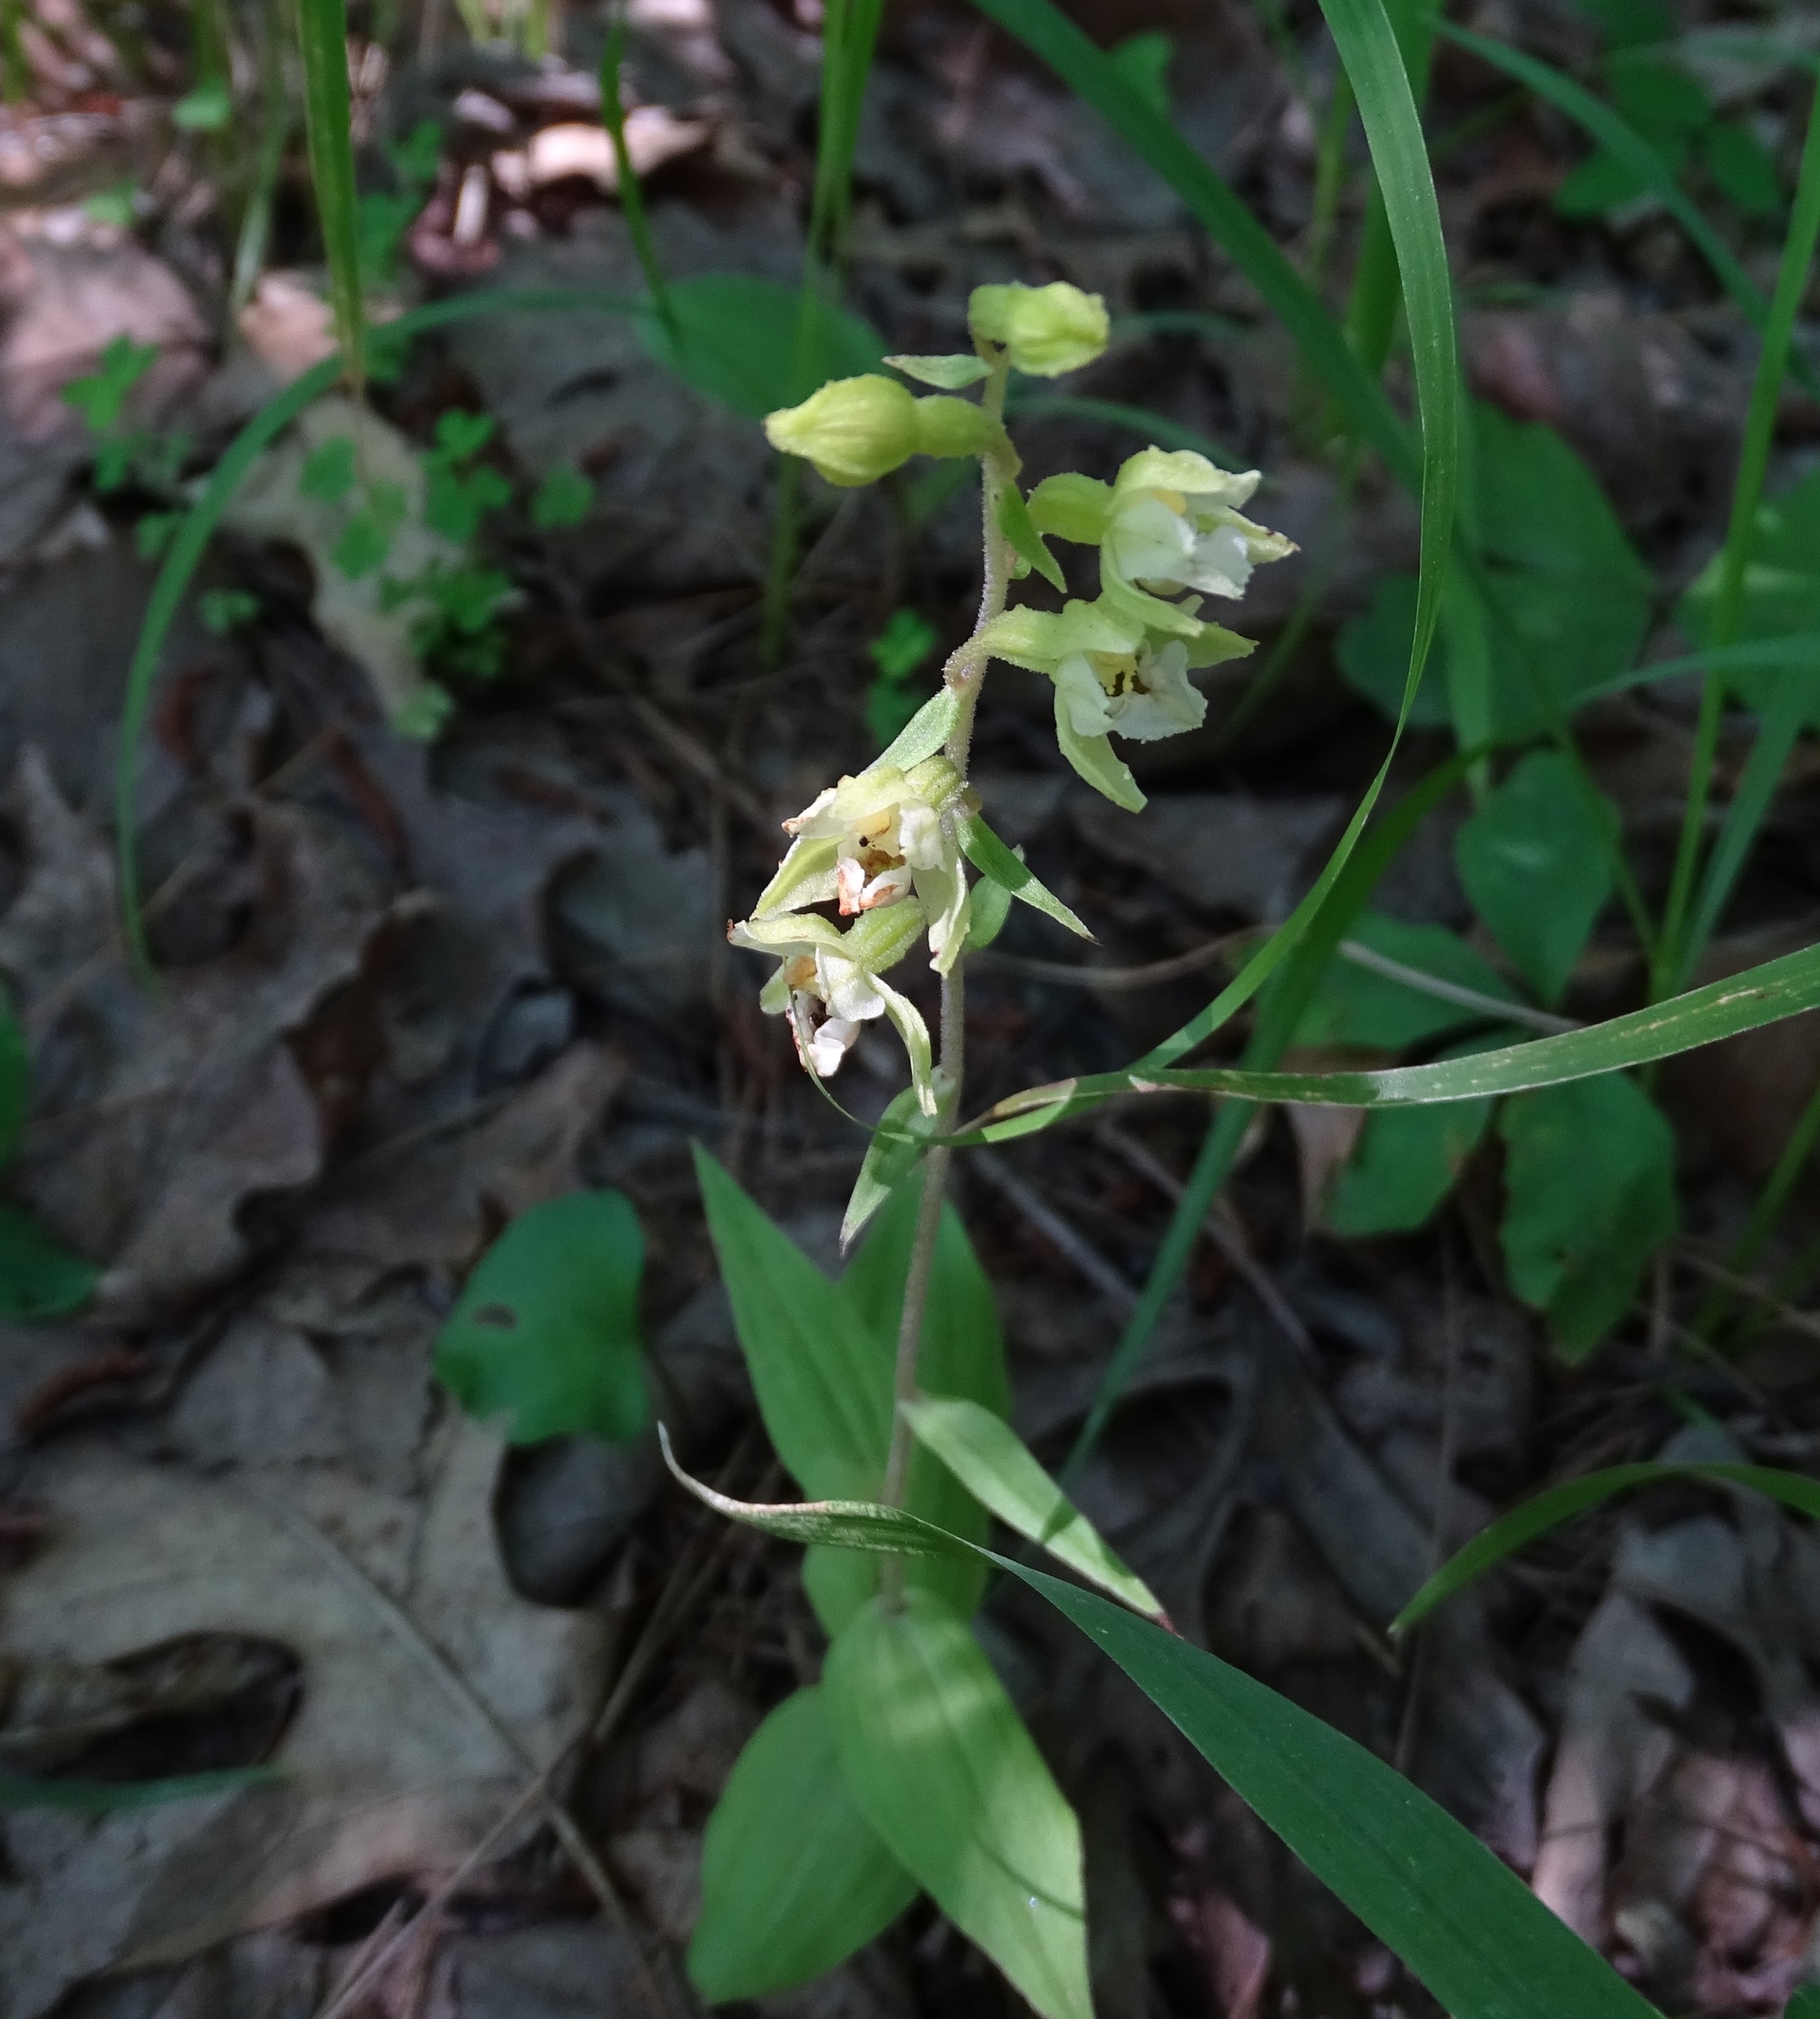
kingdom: Plantae
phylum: Tracheophyta
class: Liliopsida
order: Asparagales
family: Orchidaceae
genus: Epipactis
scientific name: Epipactis helleborine
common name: Broad-leaved helleborine
